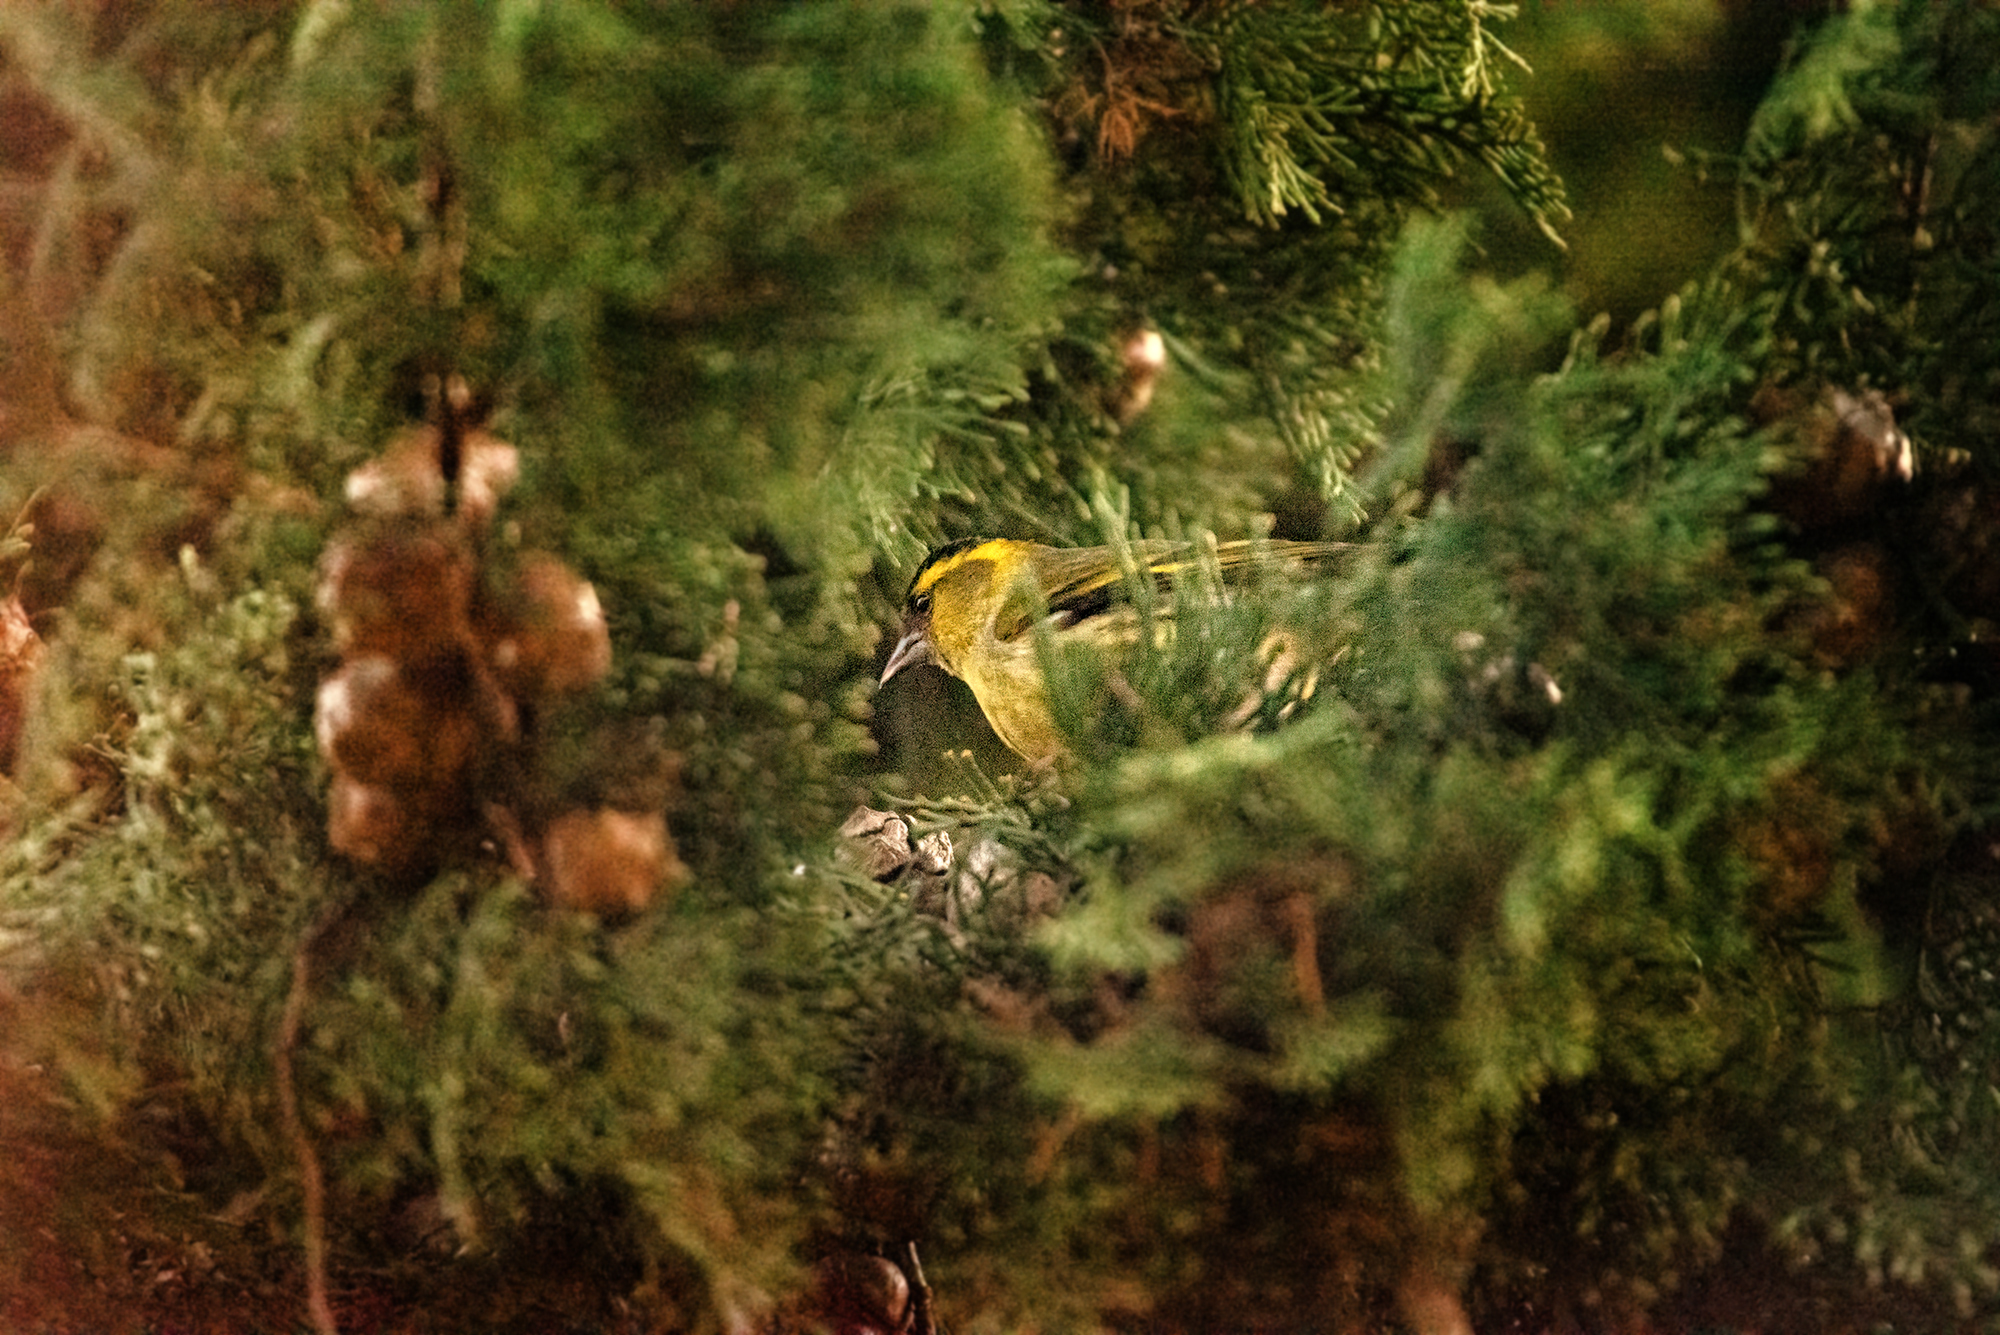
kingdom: Animalia
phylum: Chordata
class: Aves
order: Passeriformes
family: Fringillidae
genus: Spinus
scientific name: Spinus spinus
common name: Eurasian siskin
